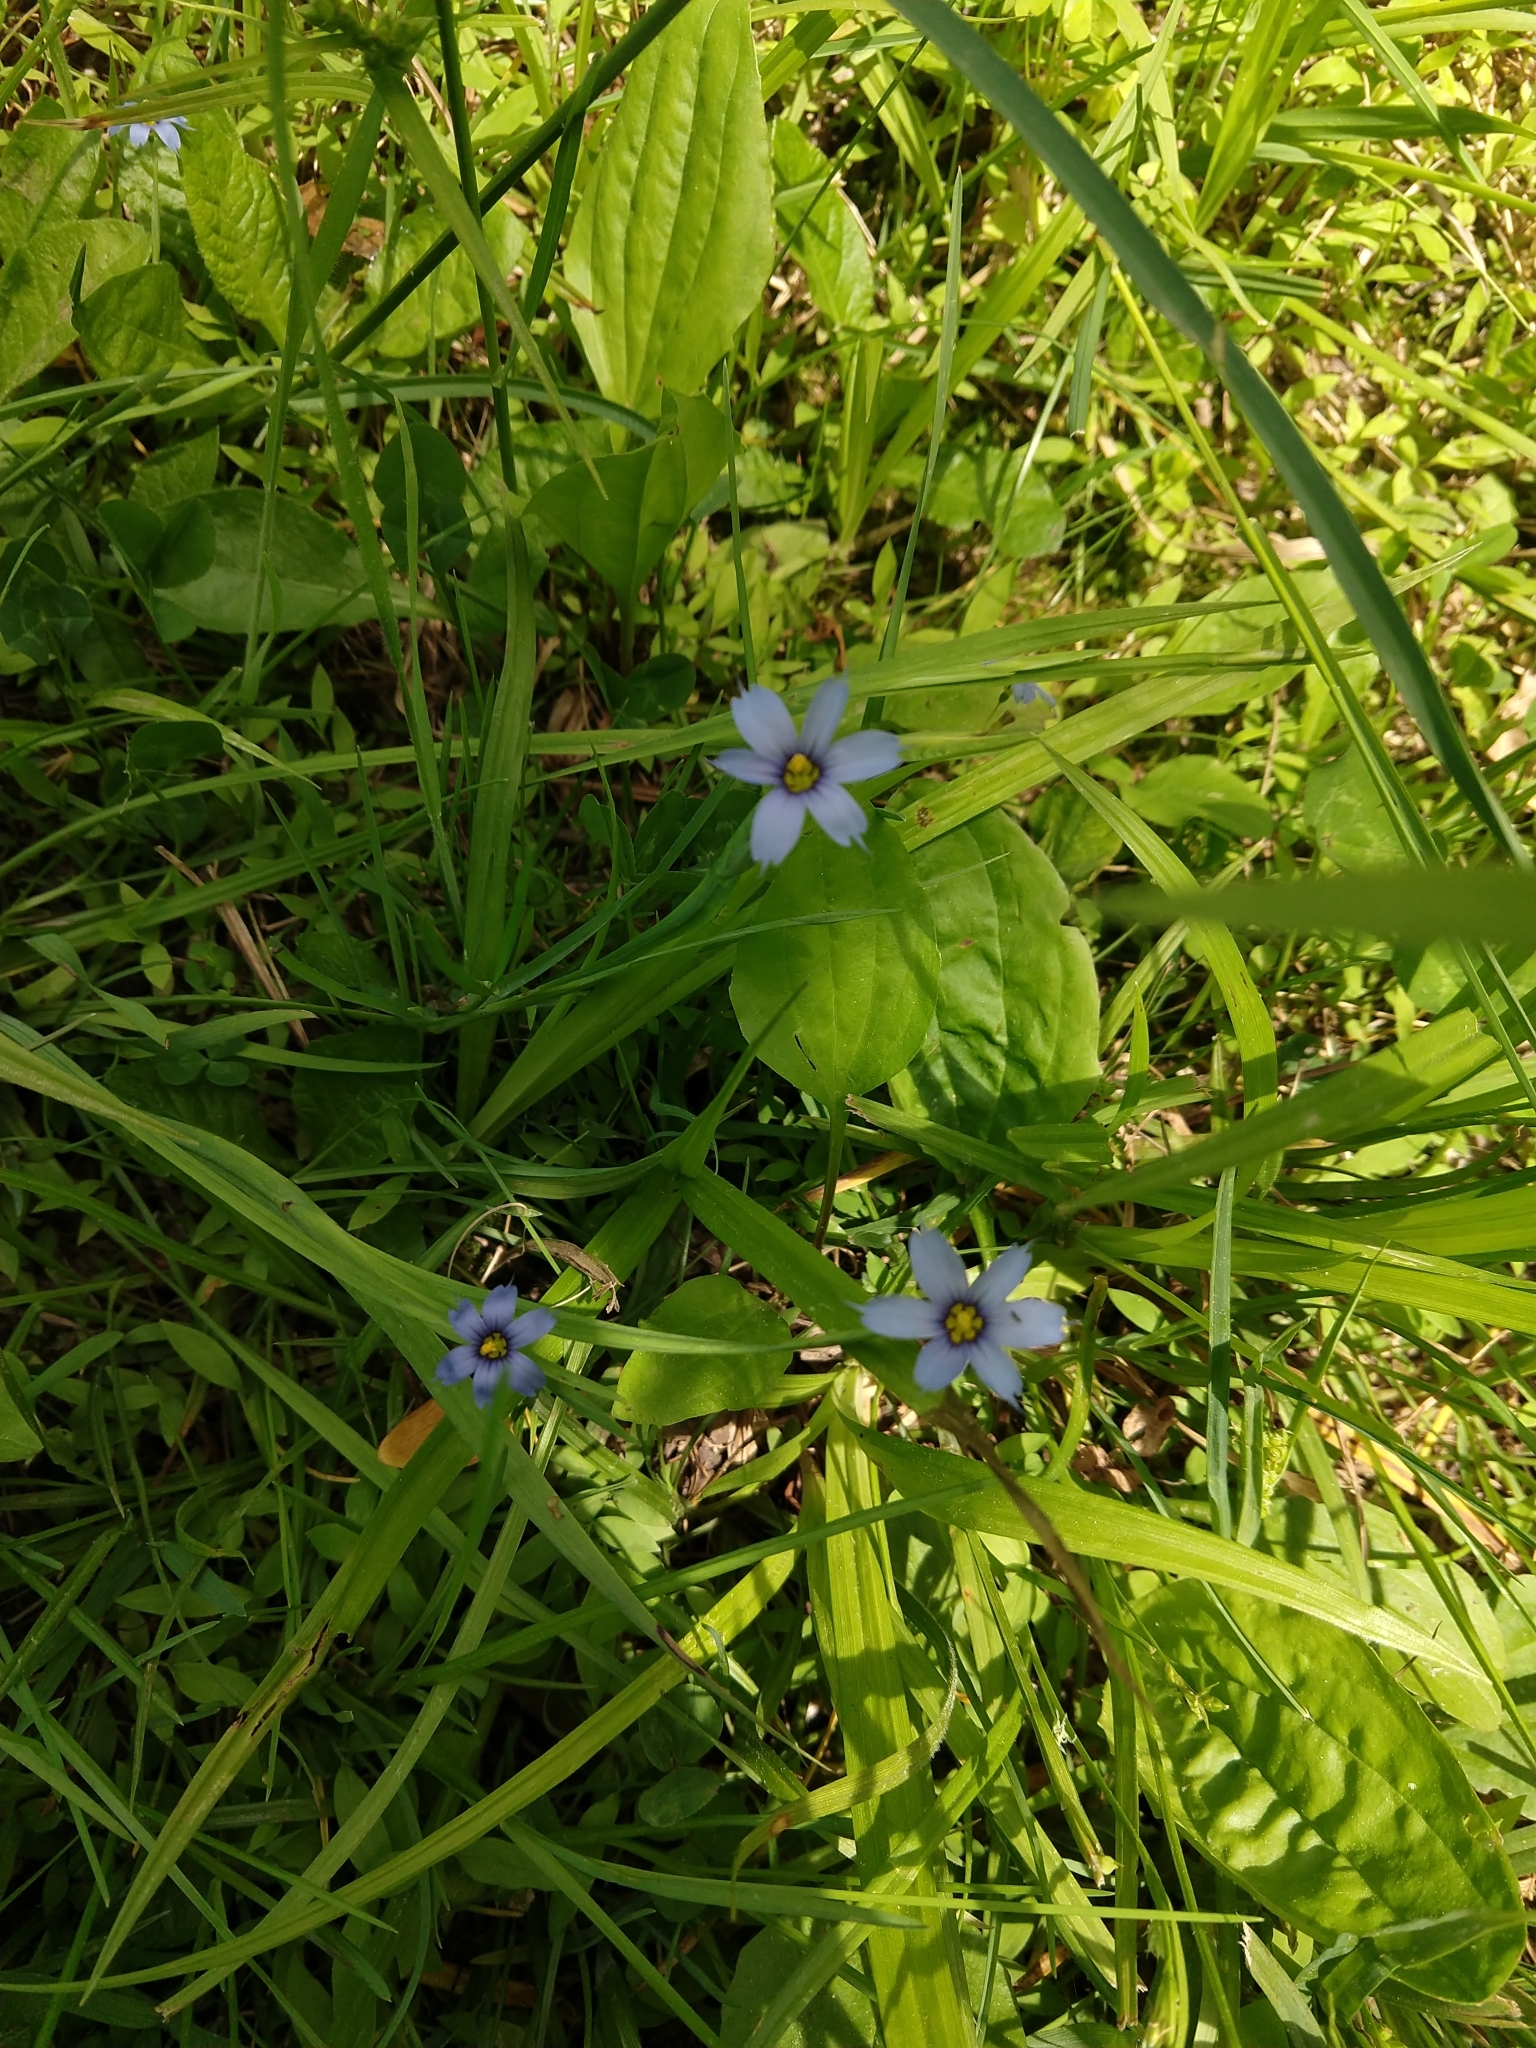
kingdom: Plantae
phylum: Tracheophyta
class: Liliopsida
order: Asparagales
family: Iridaceae
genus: Sisyrinchium
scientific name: Sisyrinchium angustifolium
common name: Narrow-leaf blue-eyed-grass
